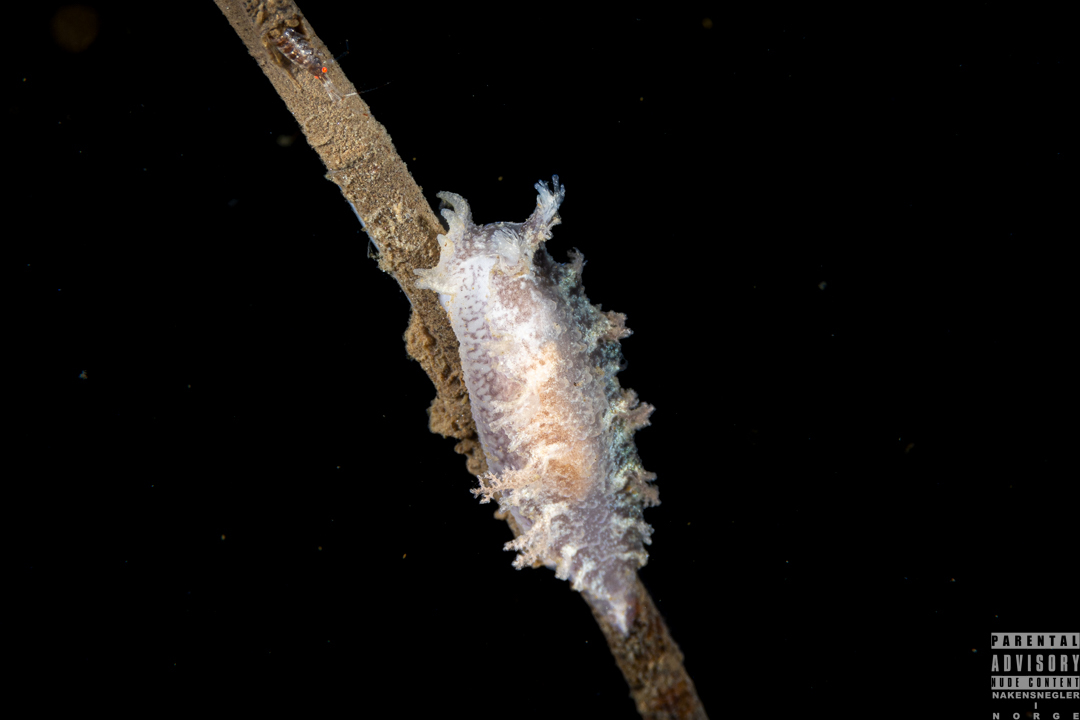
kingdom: Animalia
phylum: Mollusca
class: Gastropoda
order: Nudibranchia
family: Tritoniidae
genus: Duvaucelia
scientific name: Duvaucelia plebeia
